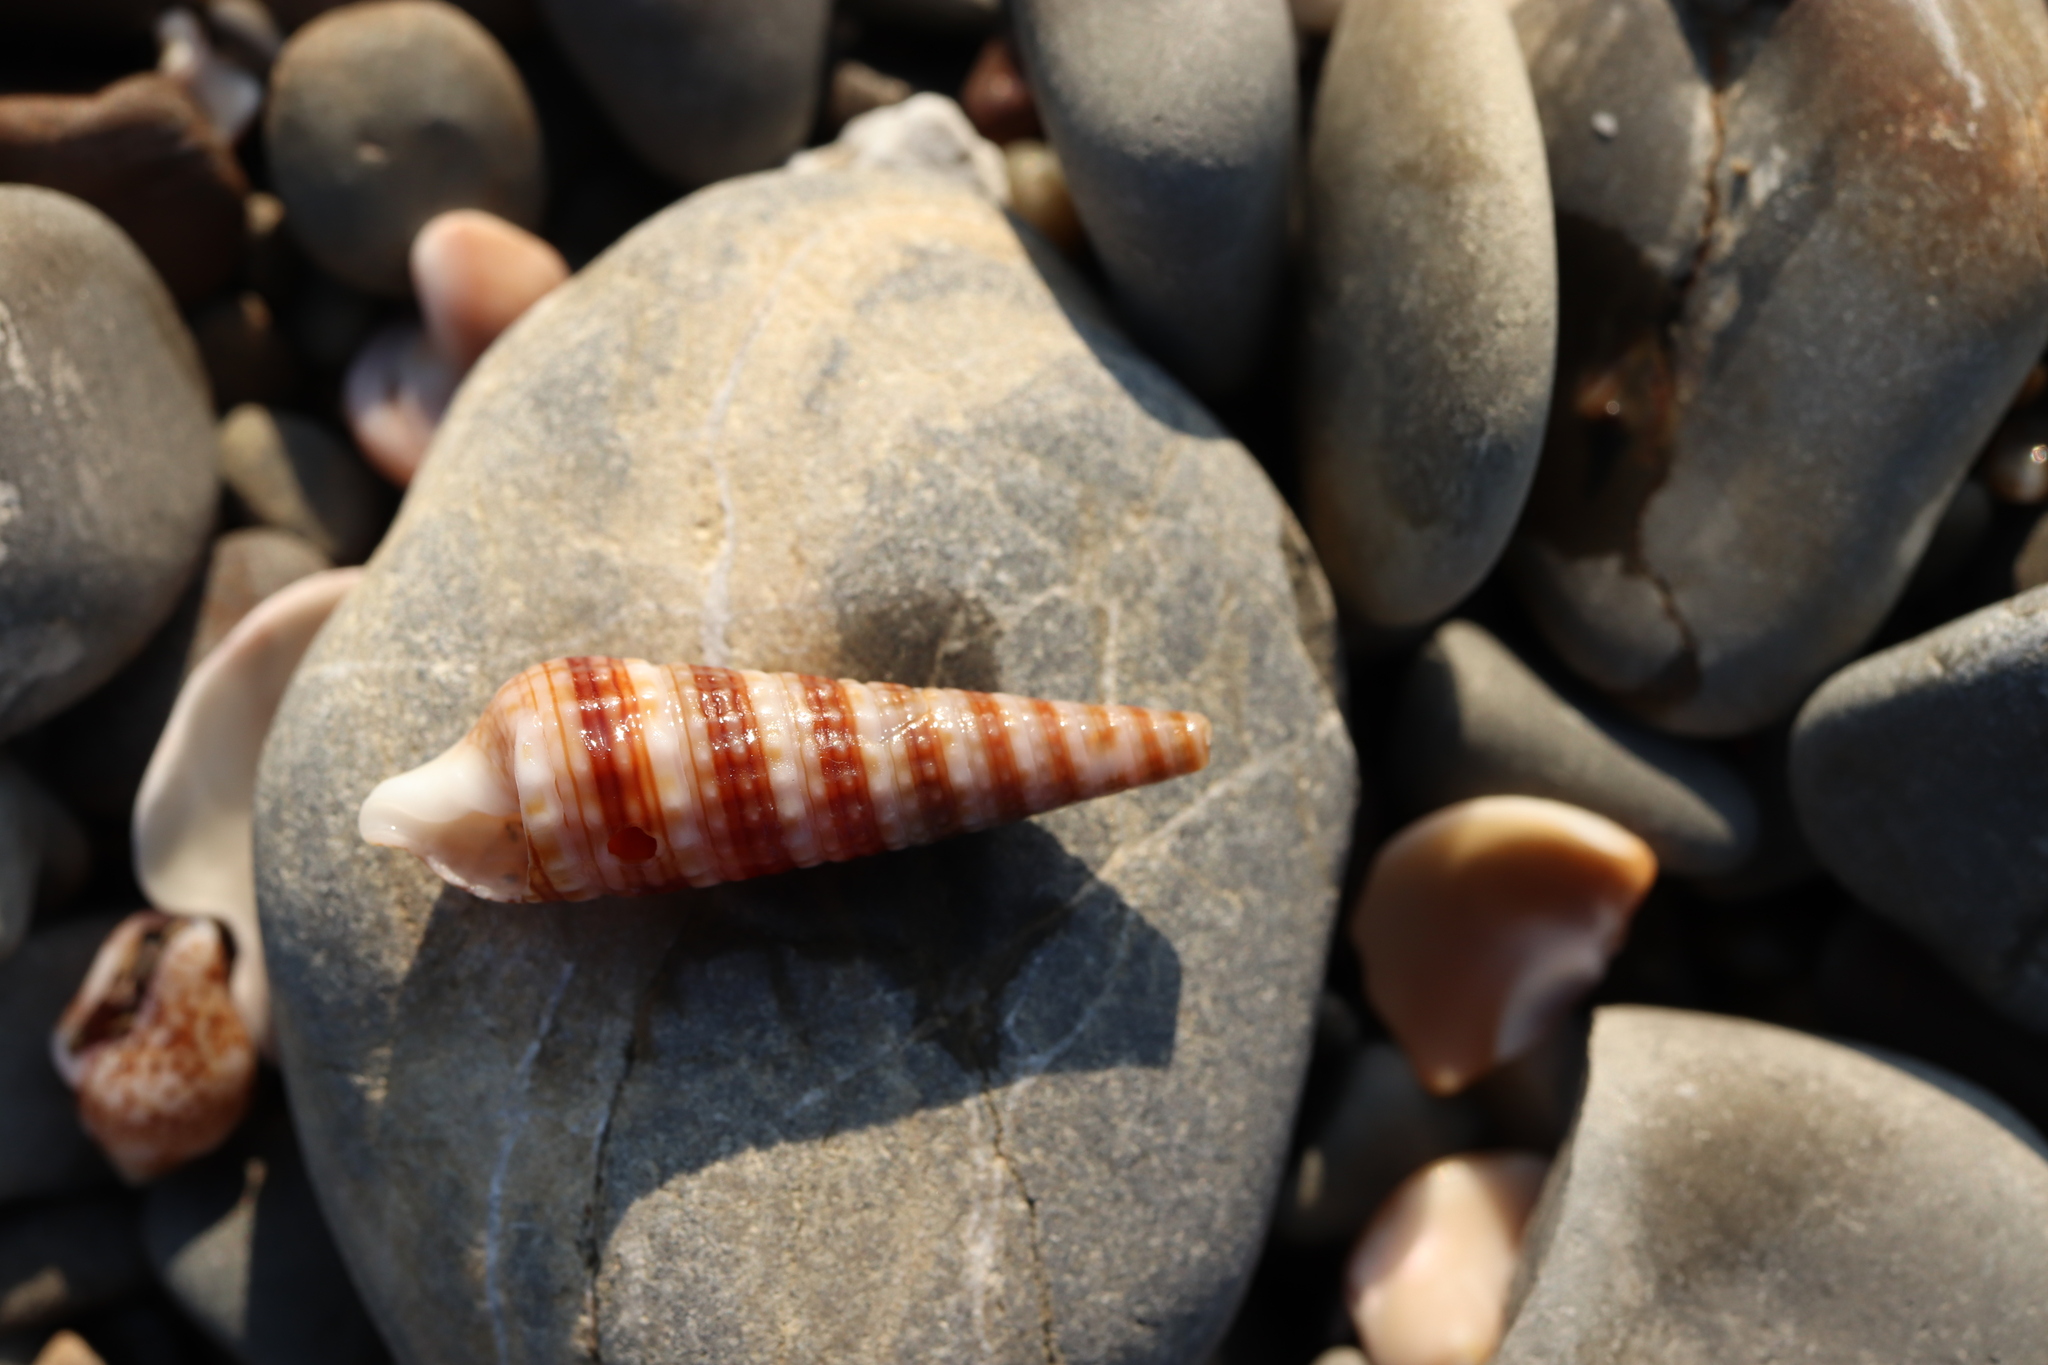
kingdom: Animalia
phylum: Mollusca
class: Gastropoda
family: Cerithiidae
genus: Rhinoclavis
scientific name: Rhinoclavis kochi
